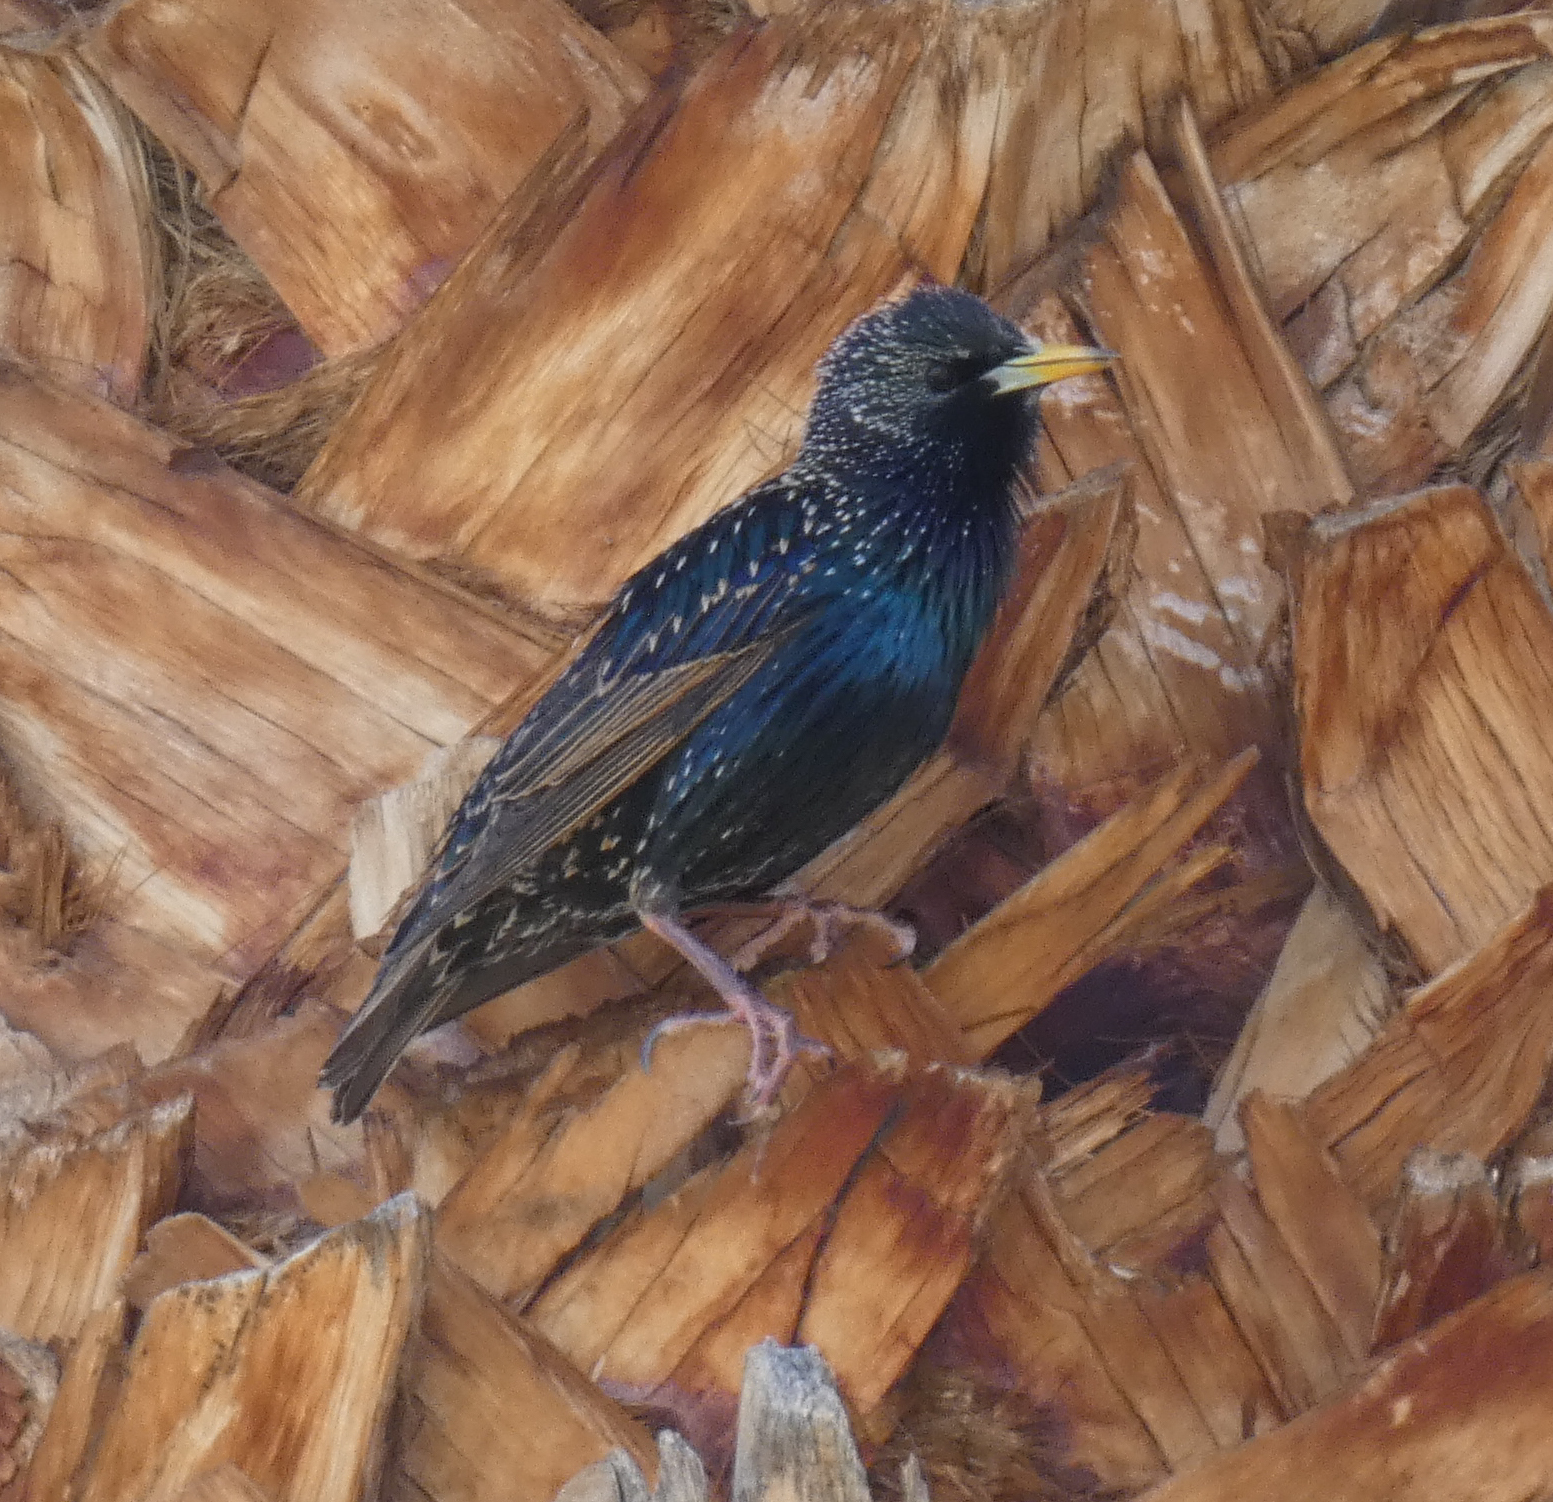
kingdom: Animalia
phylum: Chordata
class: Aves
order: Passeriformes
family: Sturnidae
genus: Sturnus
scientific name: Sturnus vulgaris
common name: Common starling
